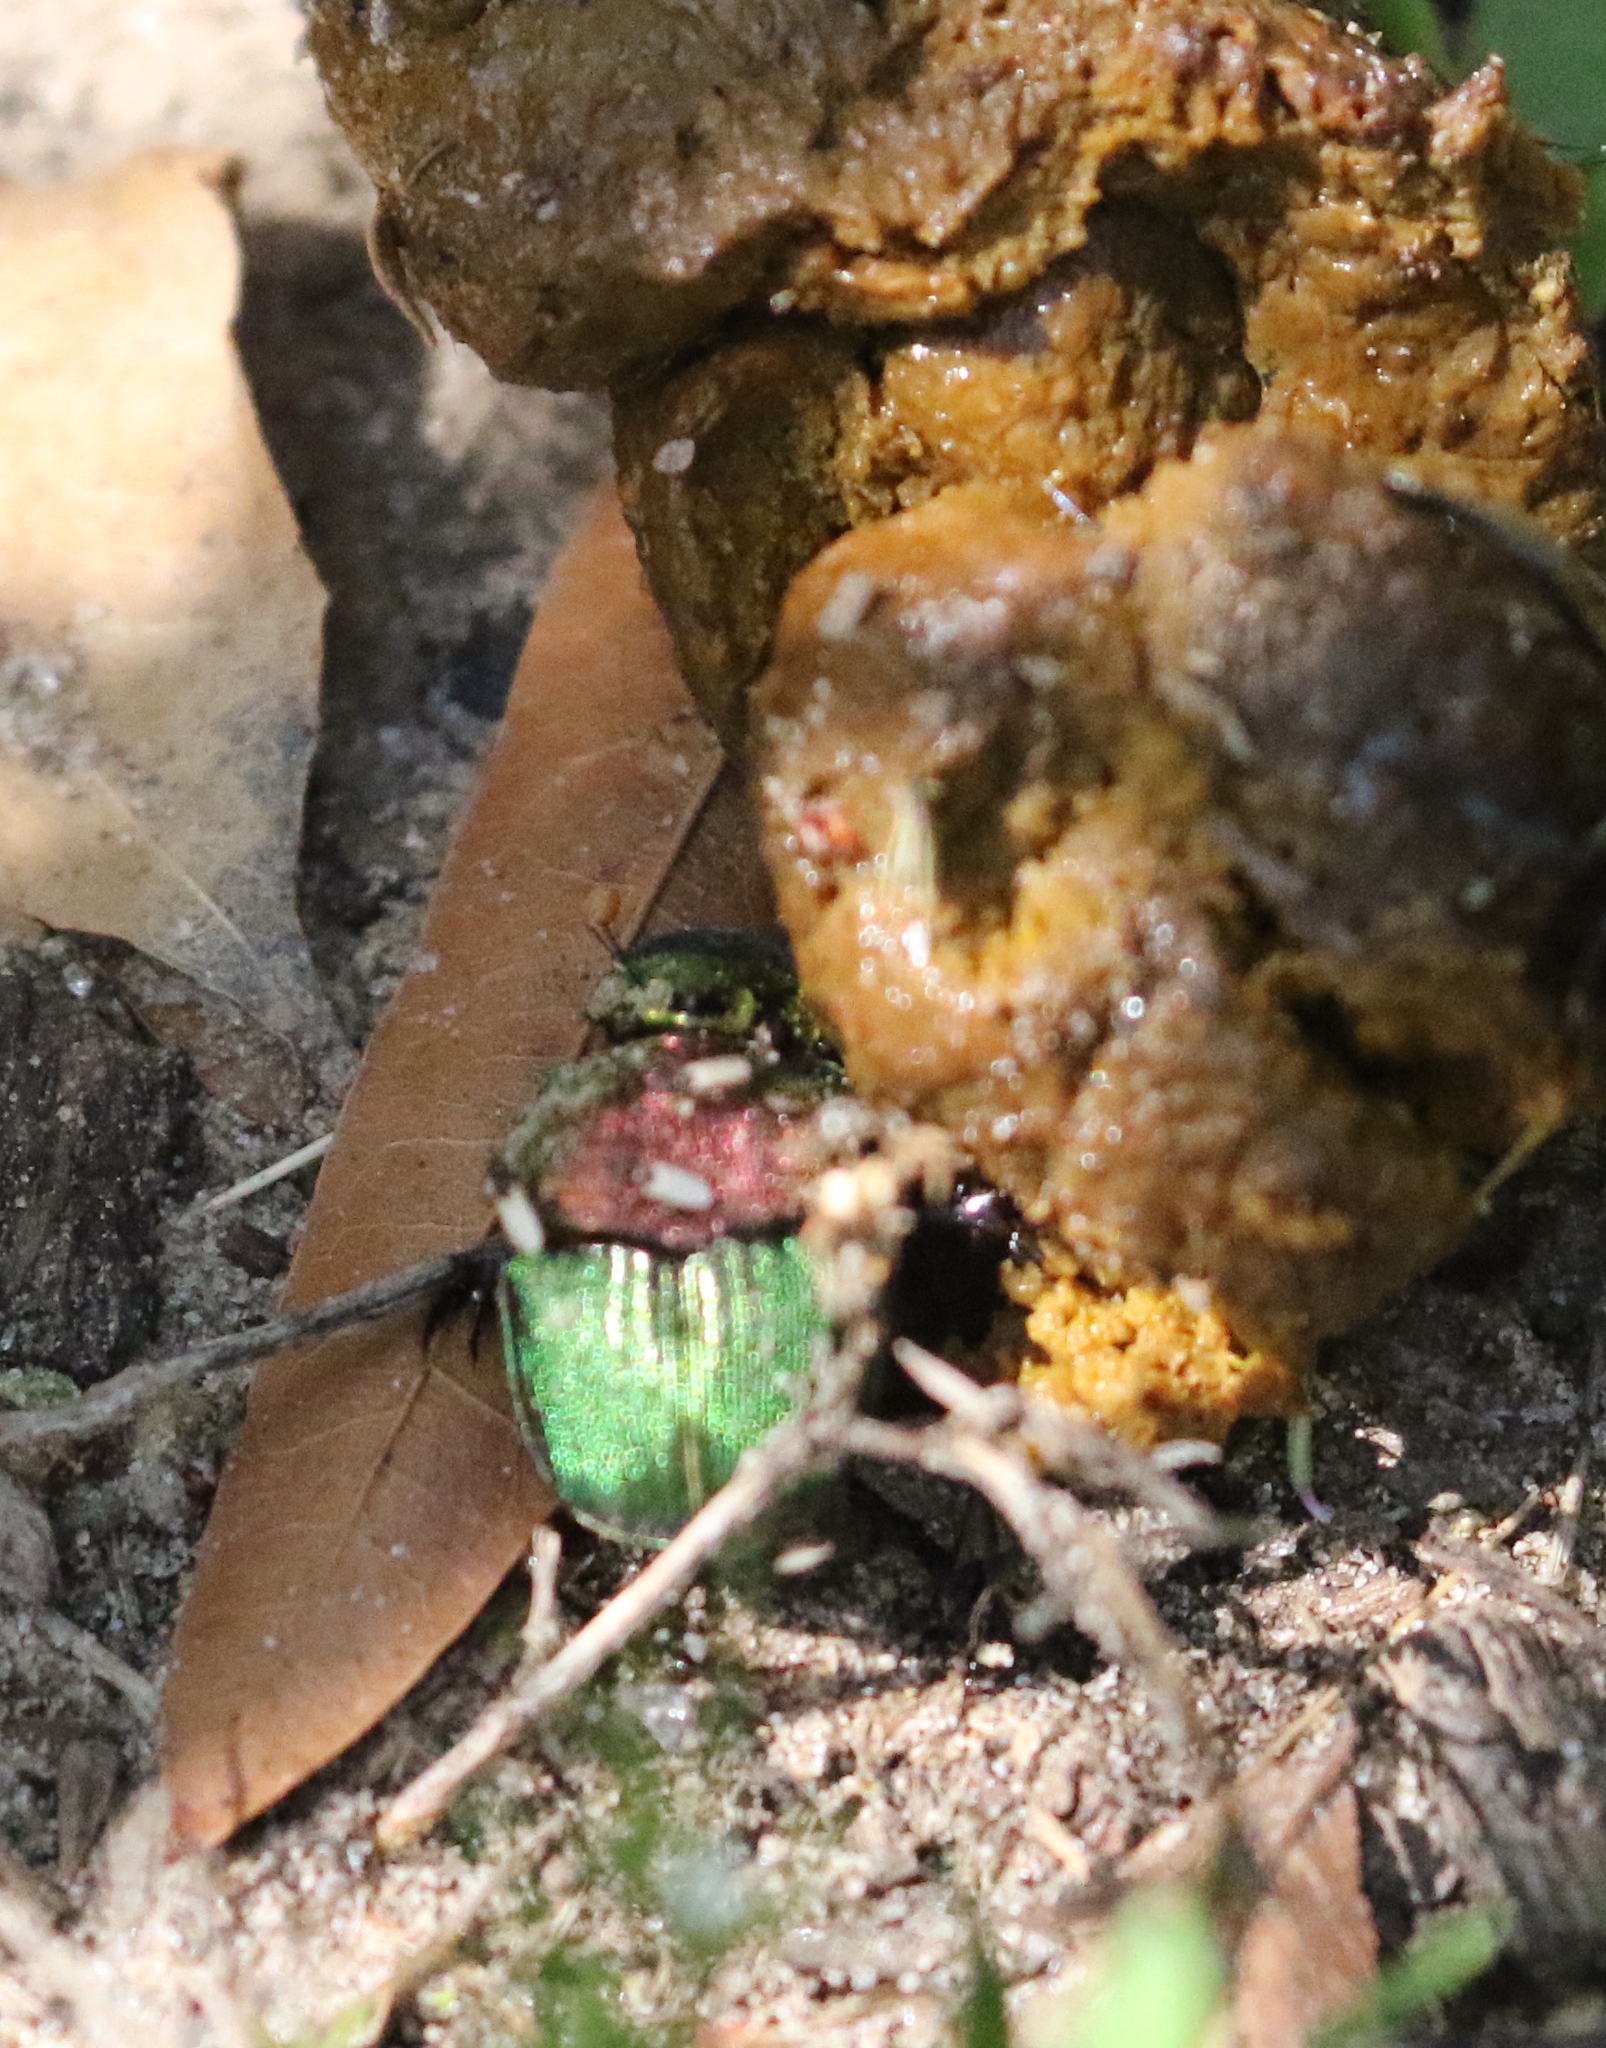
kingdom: Animalia
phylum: Arthropoda
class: Insecta
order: Coleoptera
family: Scarabaeidae
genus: Phanaeus
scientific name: Phanaeus vindex
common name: Rainbow scarab
